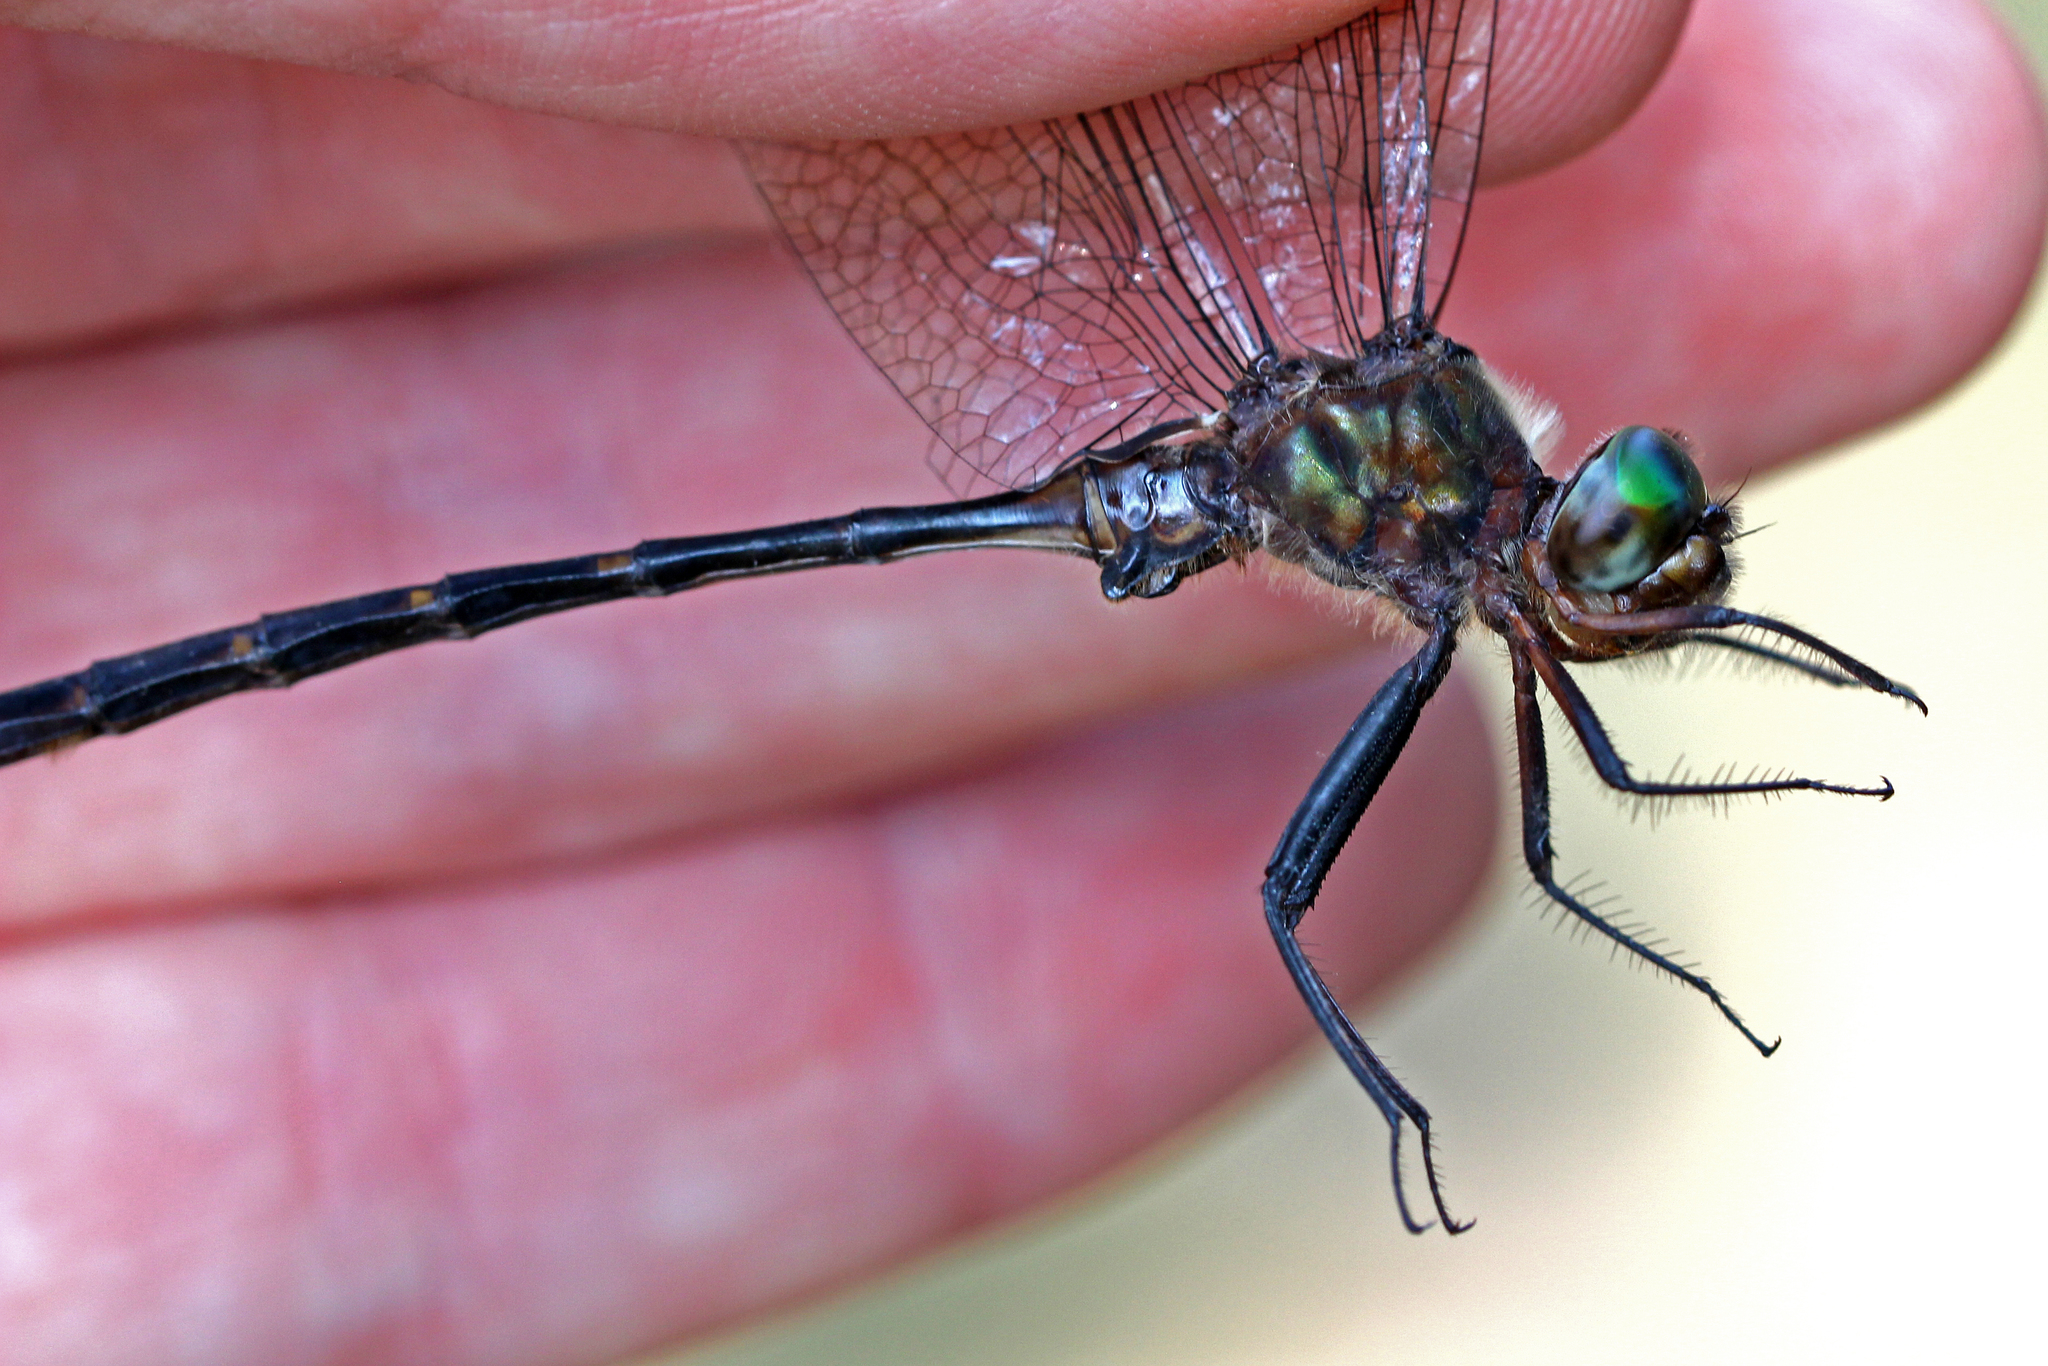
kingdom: Animalia
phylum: Arthropoda
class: Insecta
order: Odonata
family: Corduliidae
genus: Somatochlora
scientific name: Somatochlora linearis
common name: Mocha emerald
